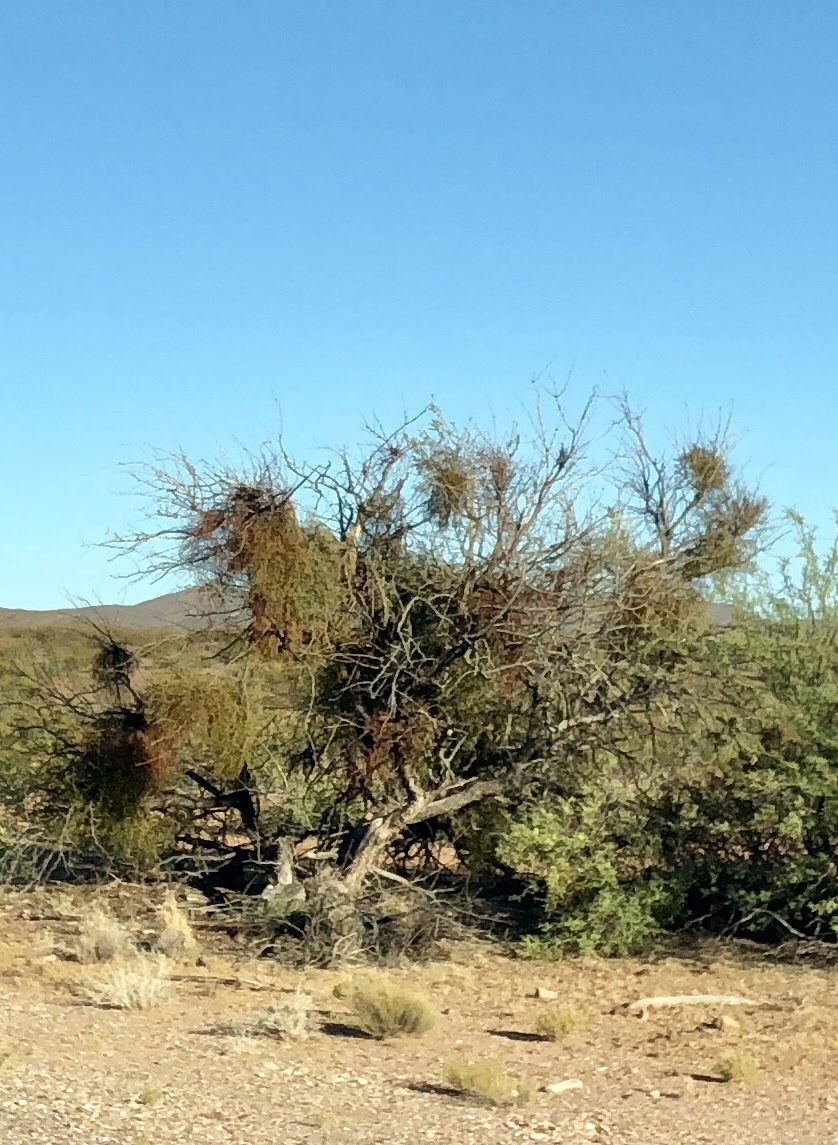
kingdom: Plantae
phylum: Tracheophyta
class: Magnoliopsida
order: Santalales
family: Viscaceae
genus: Phoradendron
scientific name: Phoradendron californicum
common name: Acacia mistletoe
